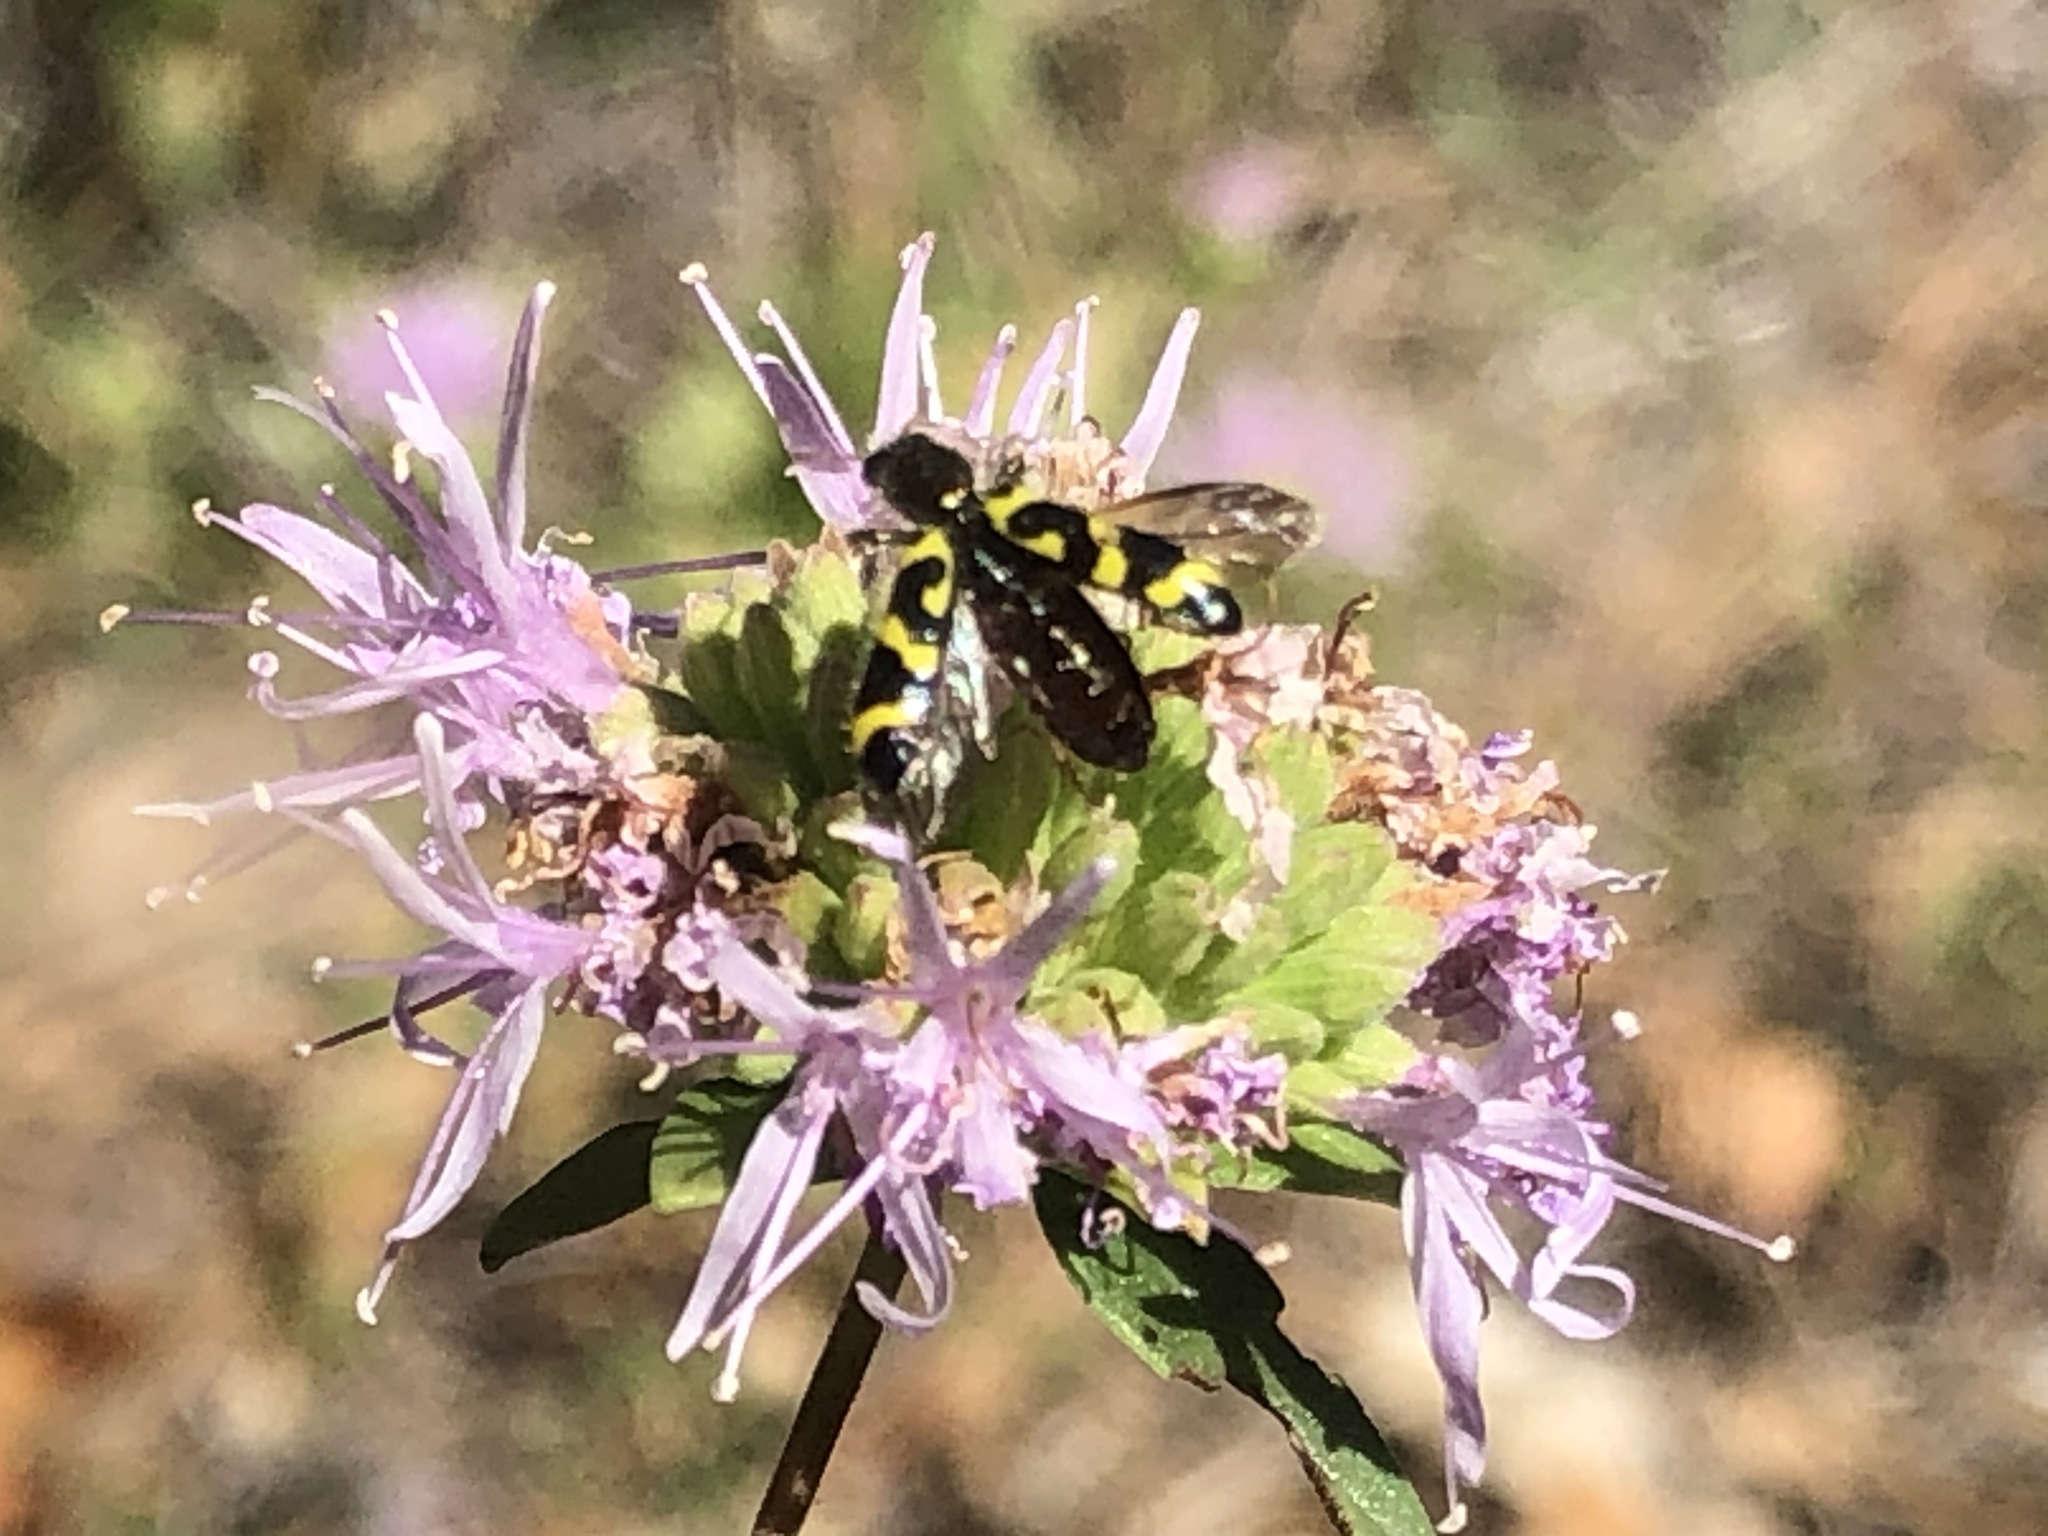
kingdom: Animalia
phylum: Arthropoda
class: Insecta
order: Coleoptera
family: Cleridae
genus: Trichodes
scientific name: Trichodes ornatus
